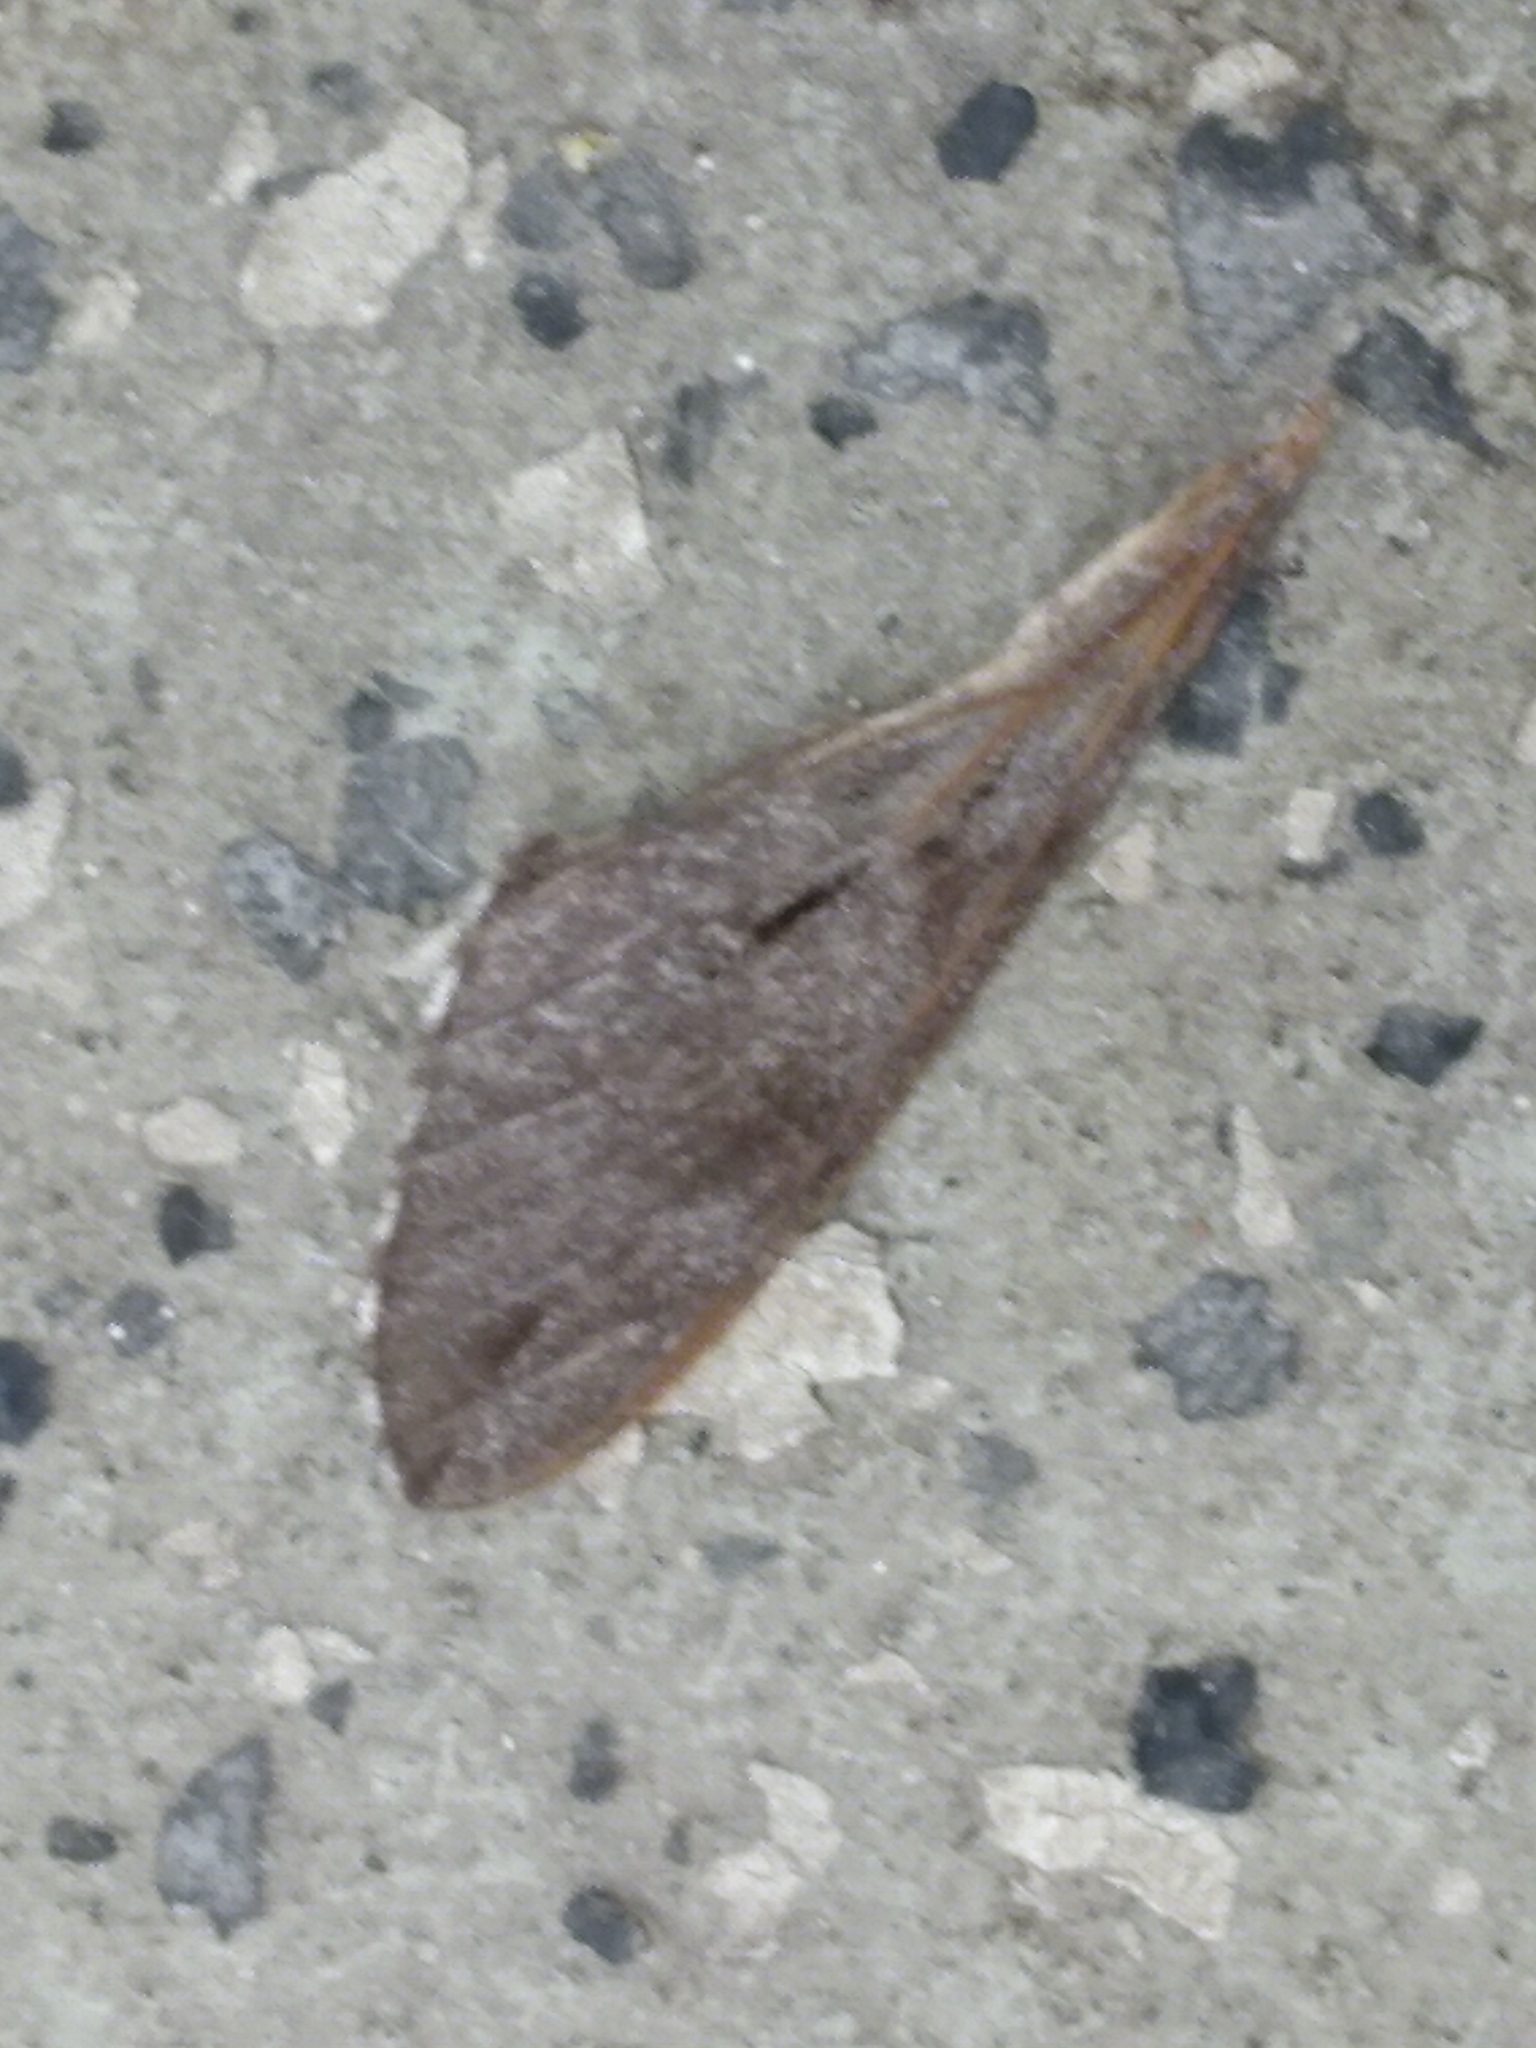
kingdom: Animalia
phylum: Arthropoda
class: Insecta
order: Lepidoptera
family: Sphingidae
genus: Sphinx
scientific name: Sphinx pinastri
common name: Pine hawk-moth
